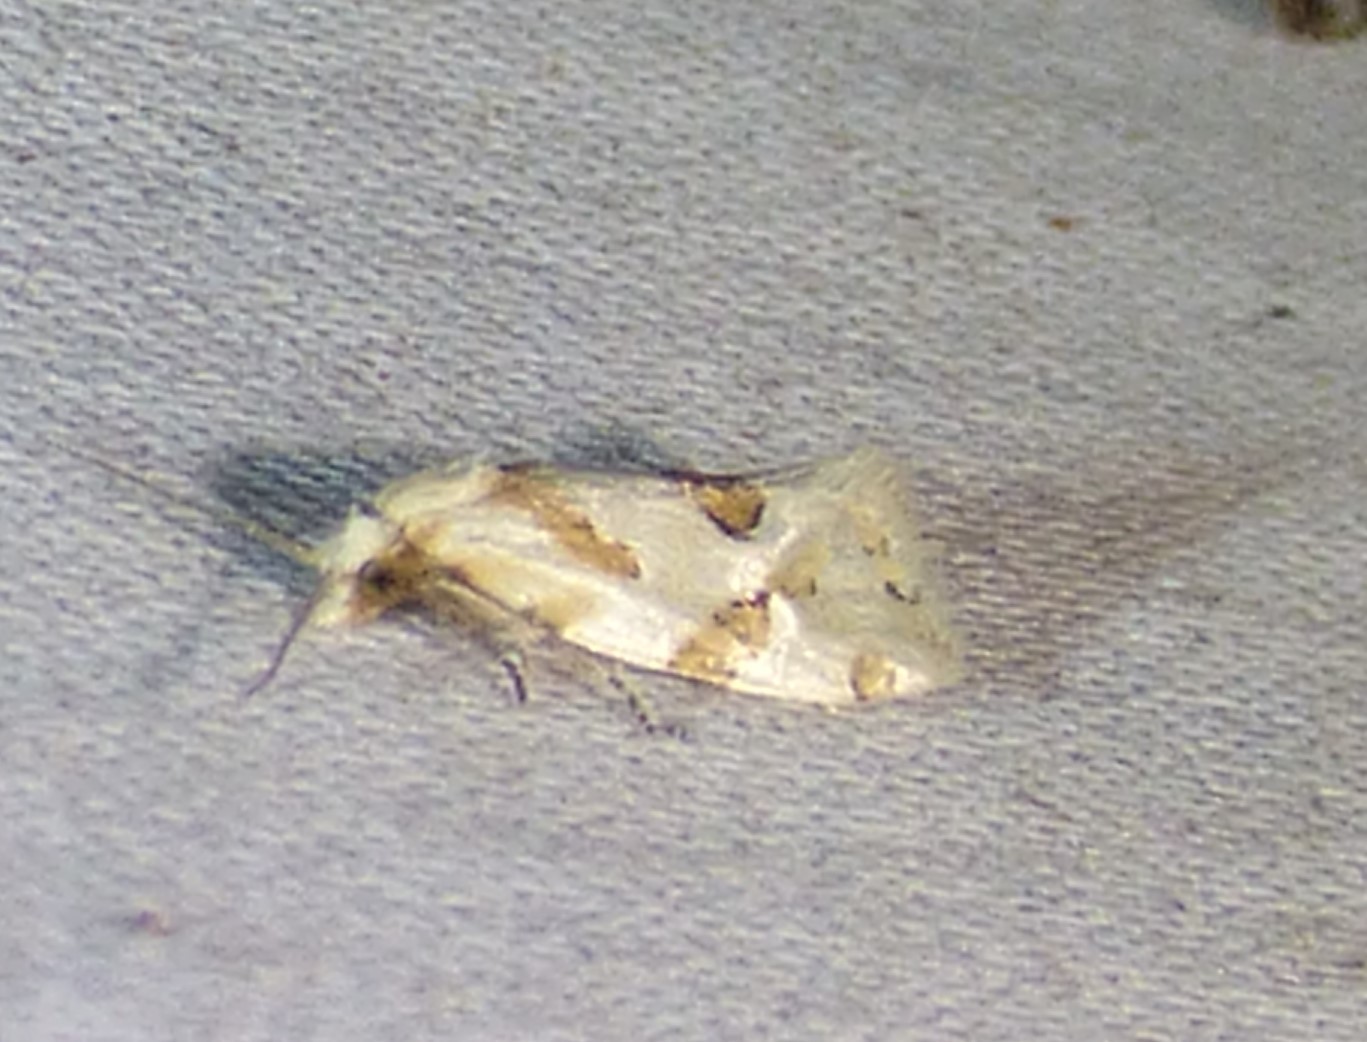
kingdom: Animalia
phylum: Arthropoda
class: Insecta
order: Lepidoptera
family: Tortricidae
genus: Aethes
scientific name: Aethes angulatana
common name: Angular aethes moth
